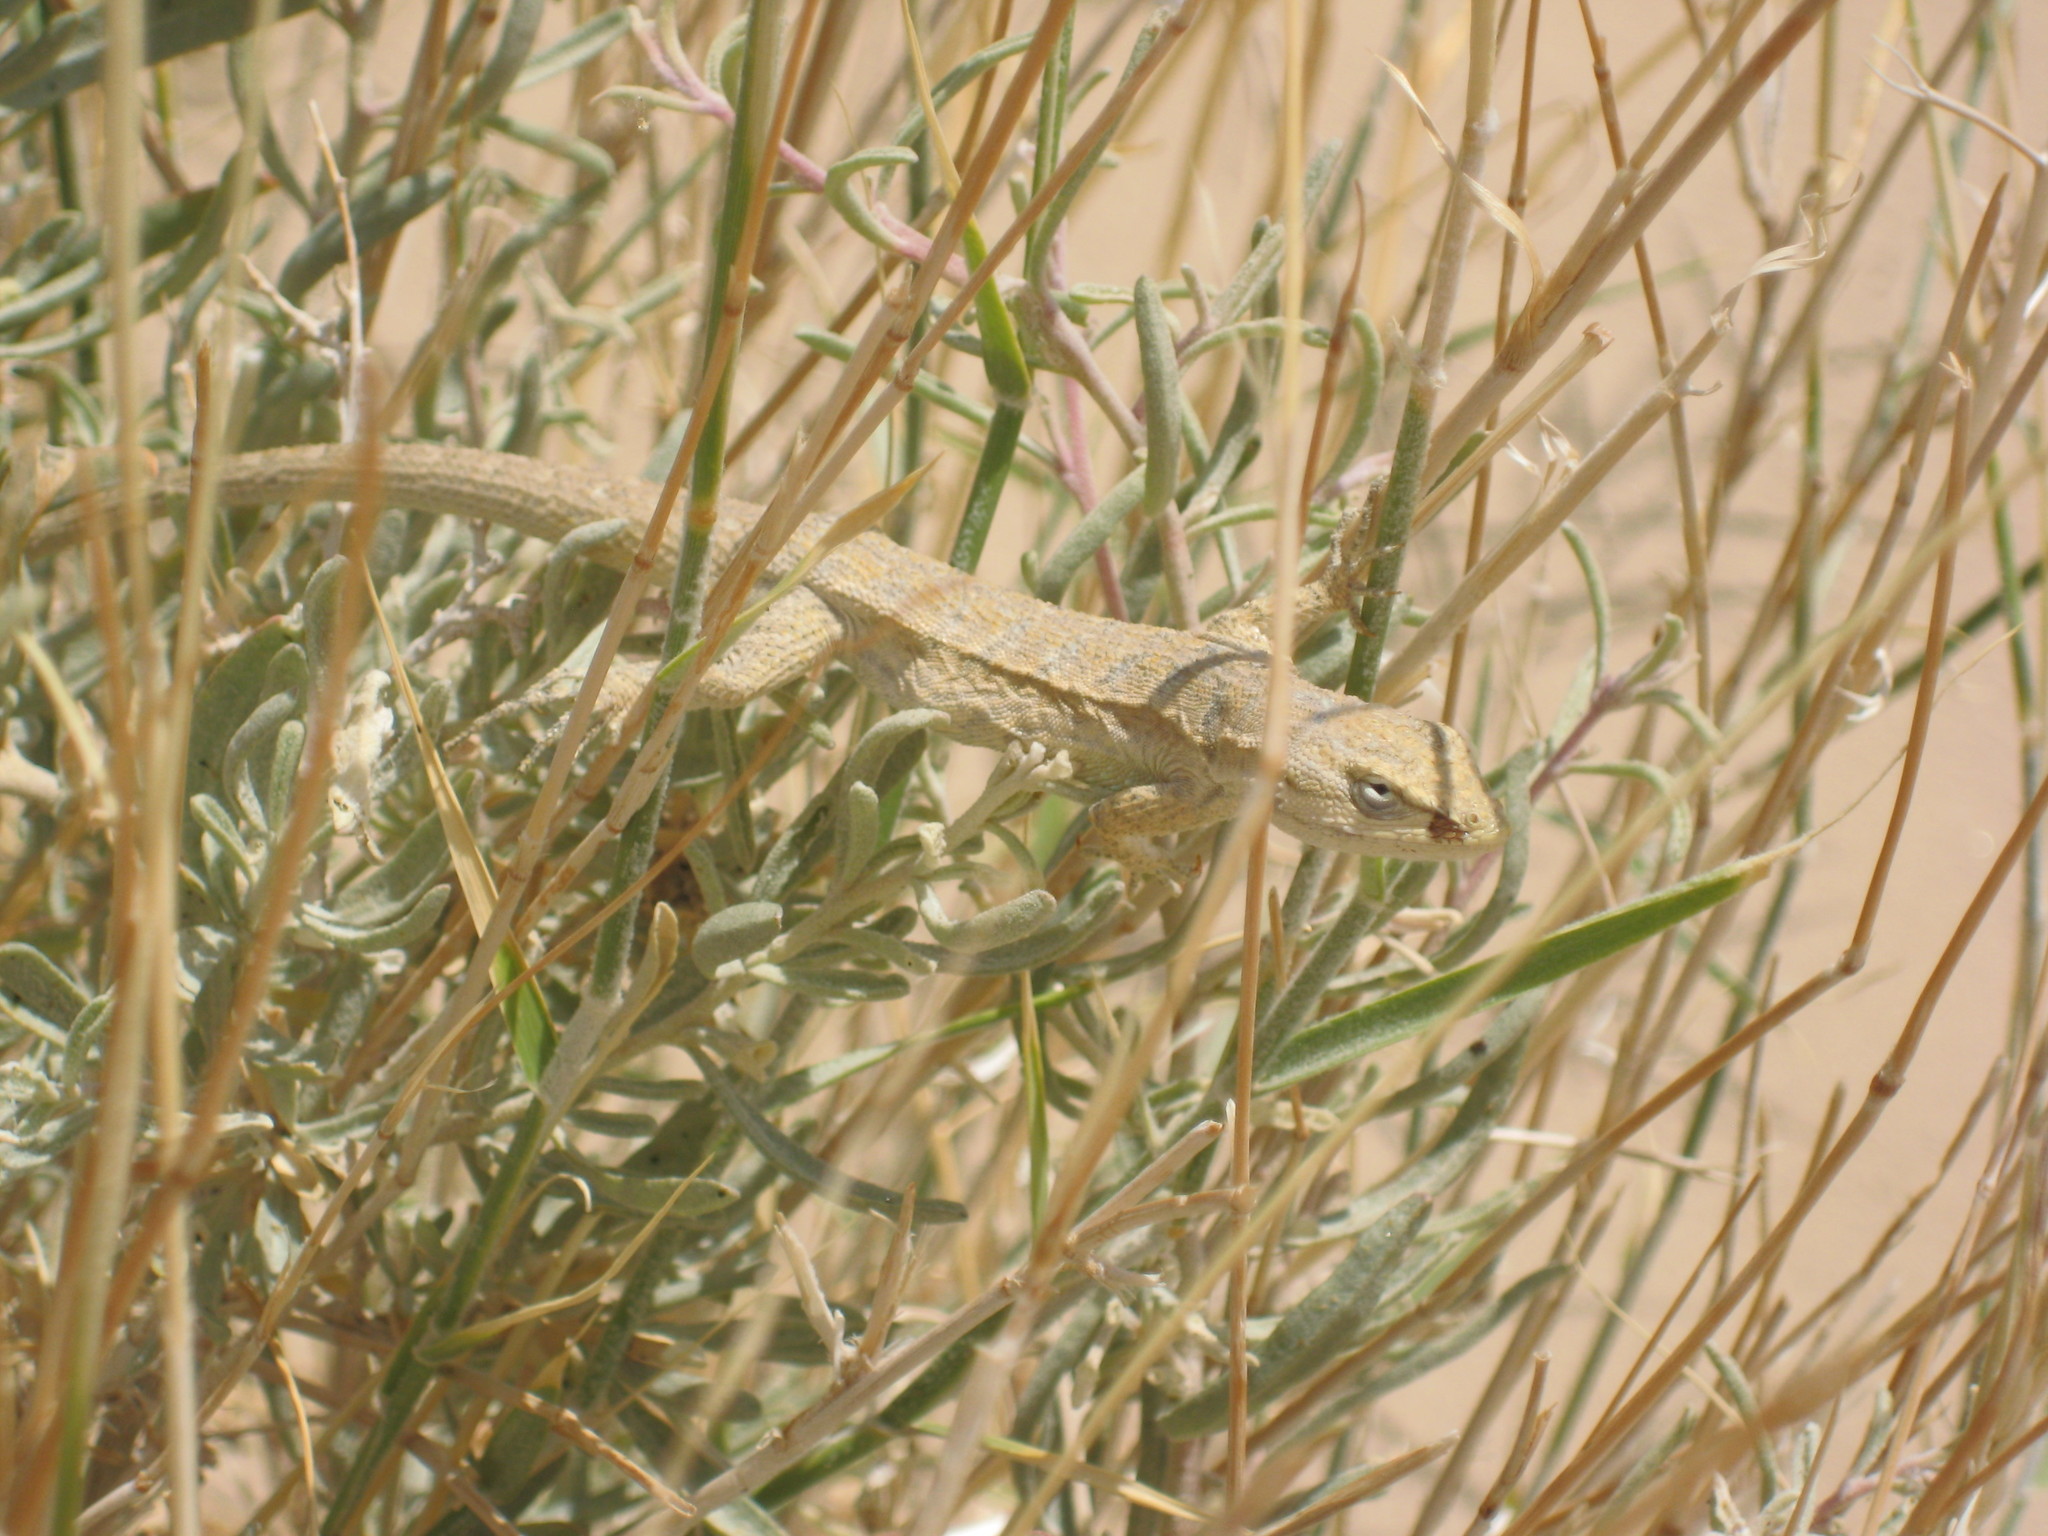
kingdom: Animalia
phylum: Chordata
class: Squamata
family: Phrynosomatidae
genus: Urosaurus
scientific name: Urosaurus graciosus
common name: Long-tailed brush lizard
